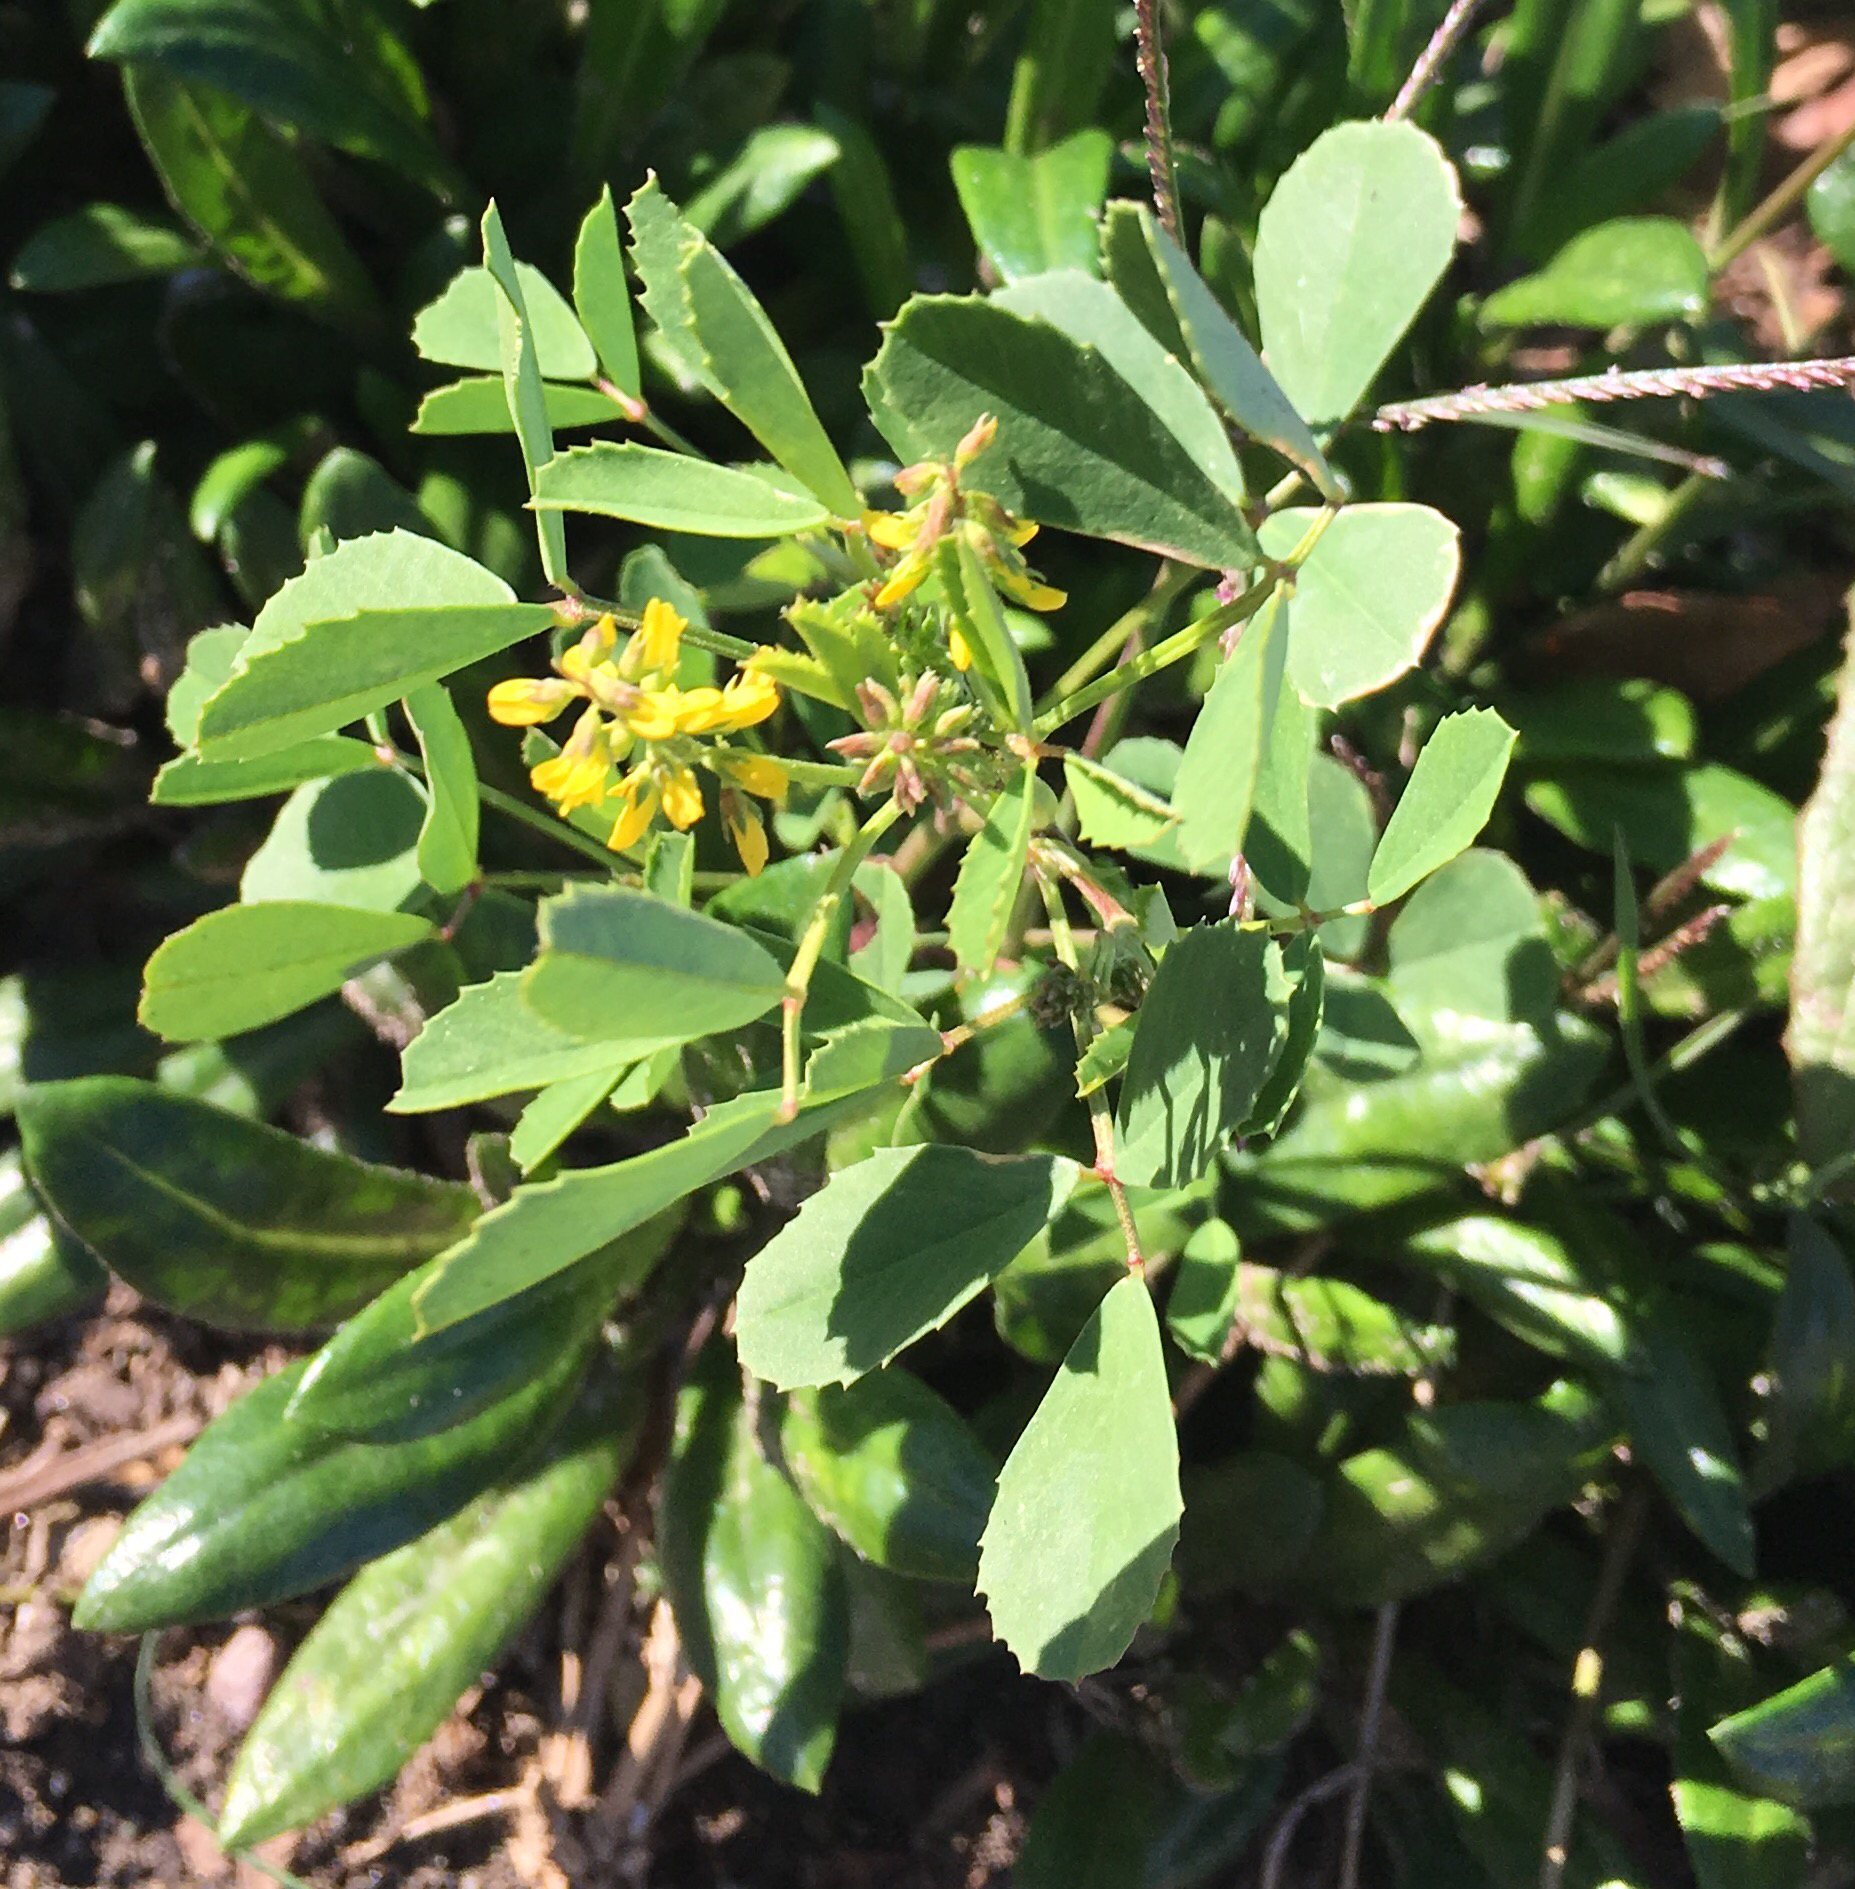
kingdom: Plantae
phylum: Tracheophyta
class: Magnoliopsida
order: Fabales
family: Fabaceae
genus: Melilotus
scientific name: Melilotus indicus
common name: Small melilot
